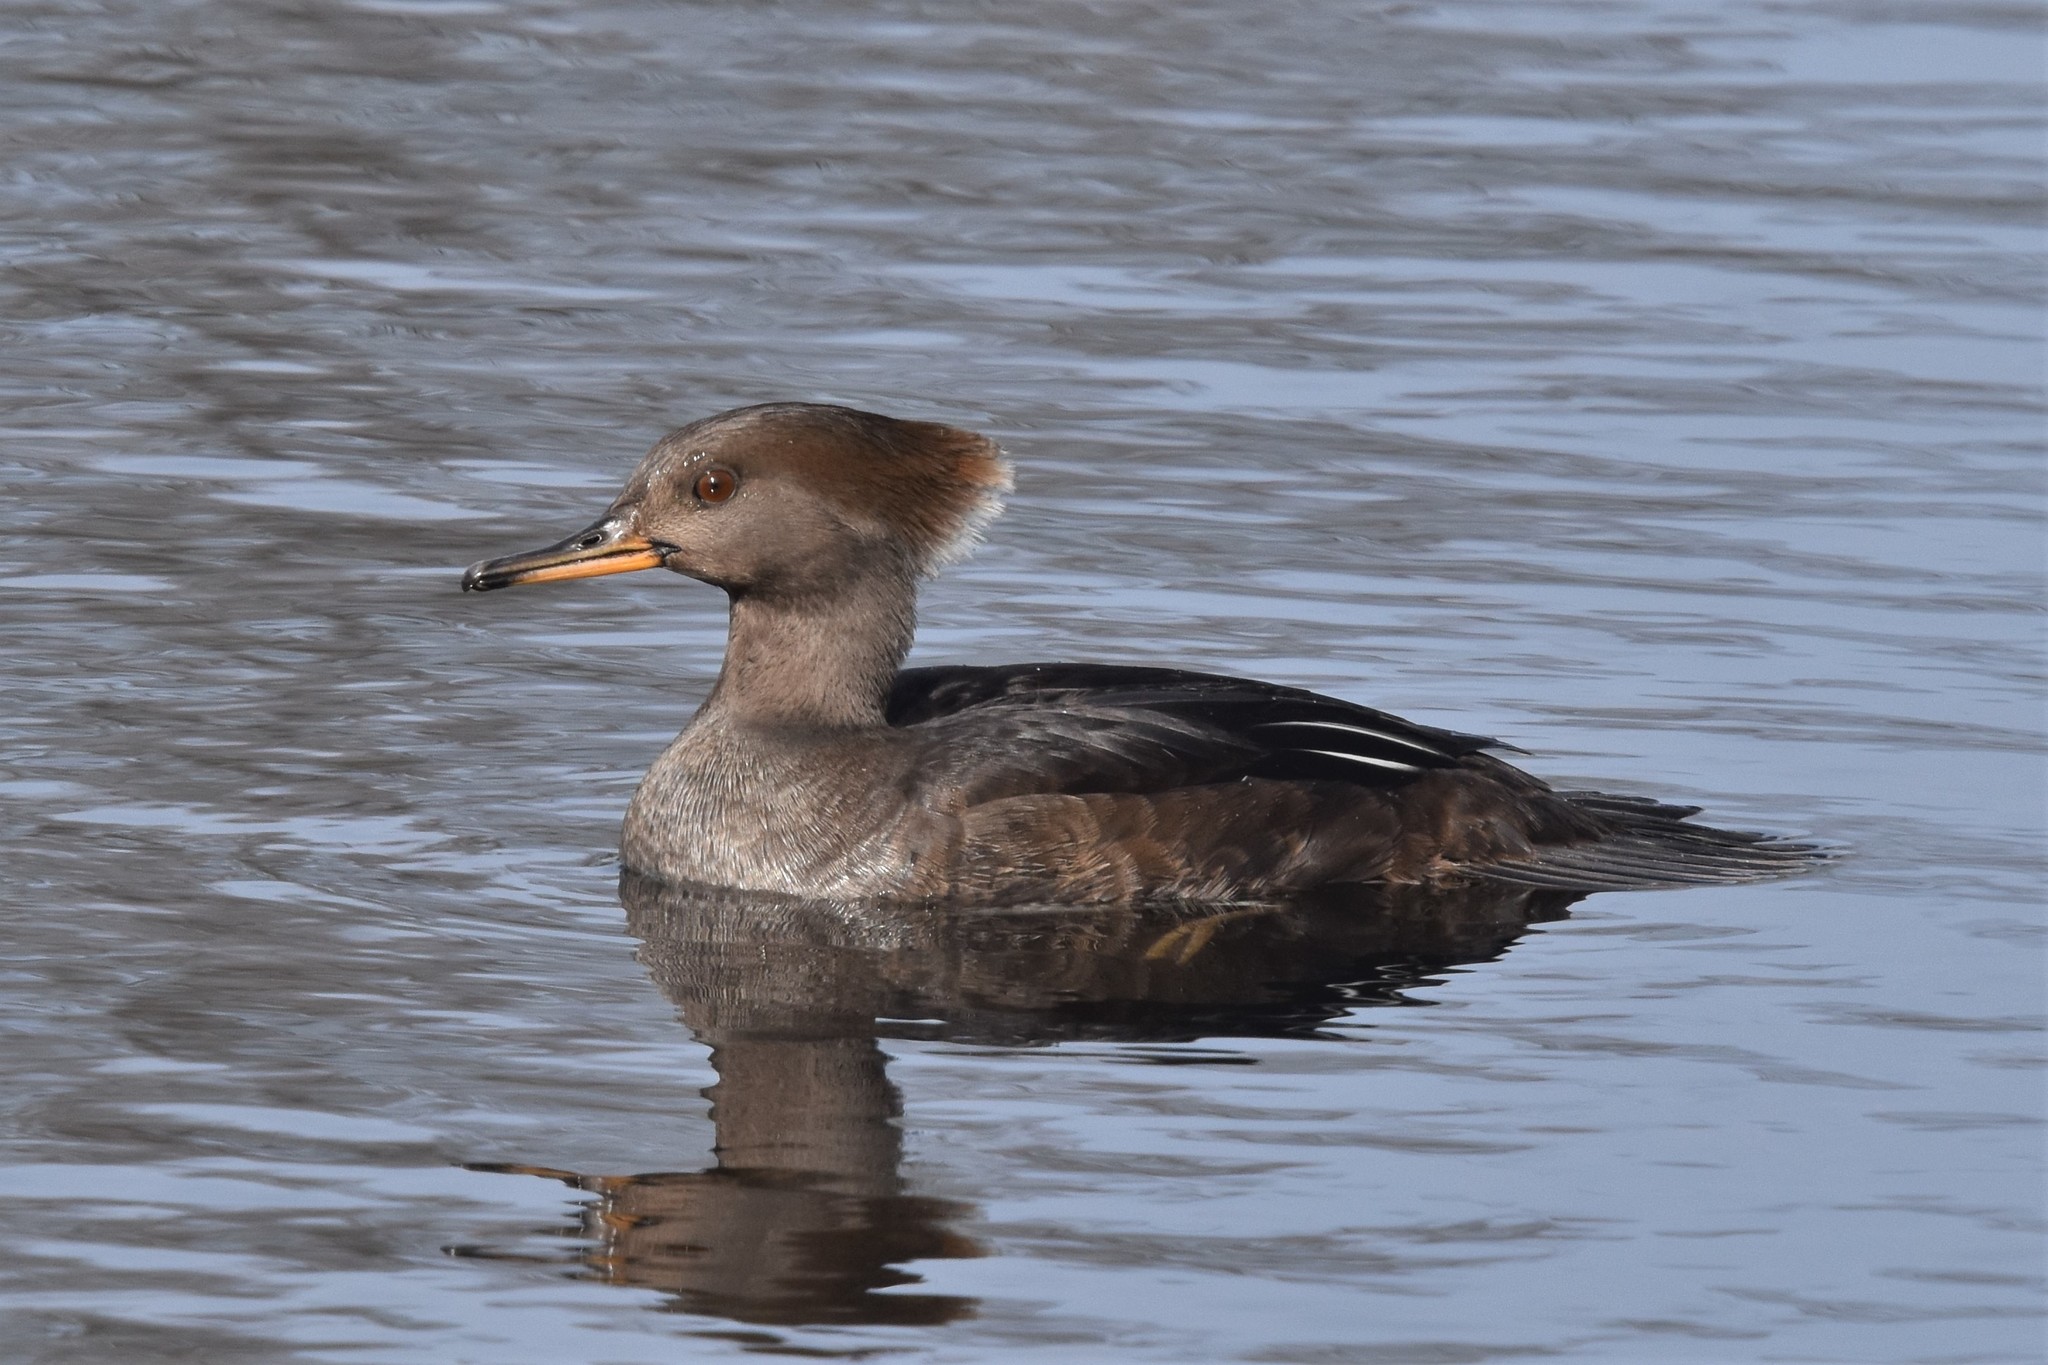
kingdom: Animalia
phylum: Chordata
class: Aves
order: Anseriformes
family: Anatidae
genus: Lophodytes
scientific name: Lophodytes cucullatus
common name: Hooded merganser
